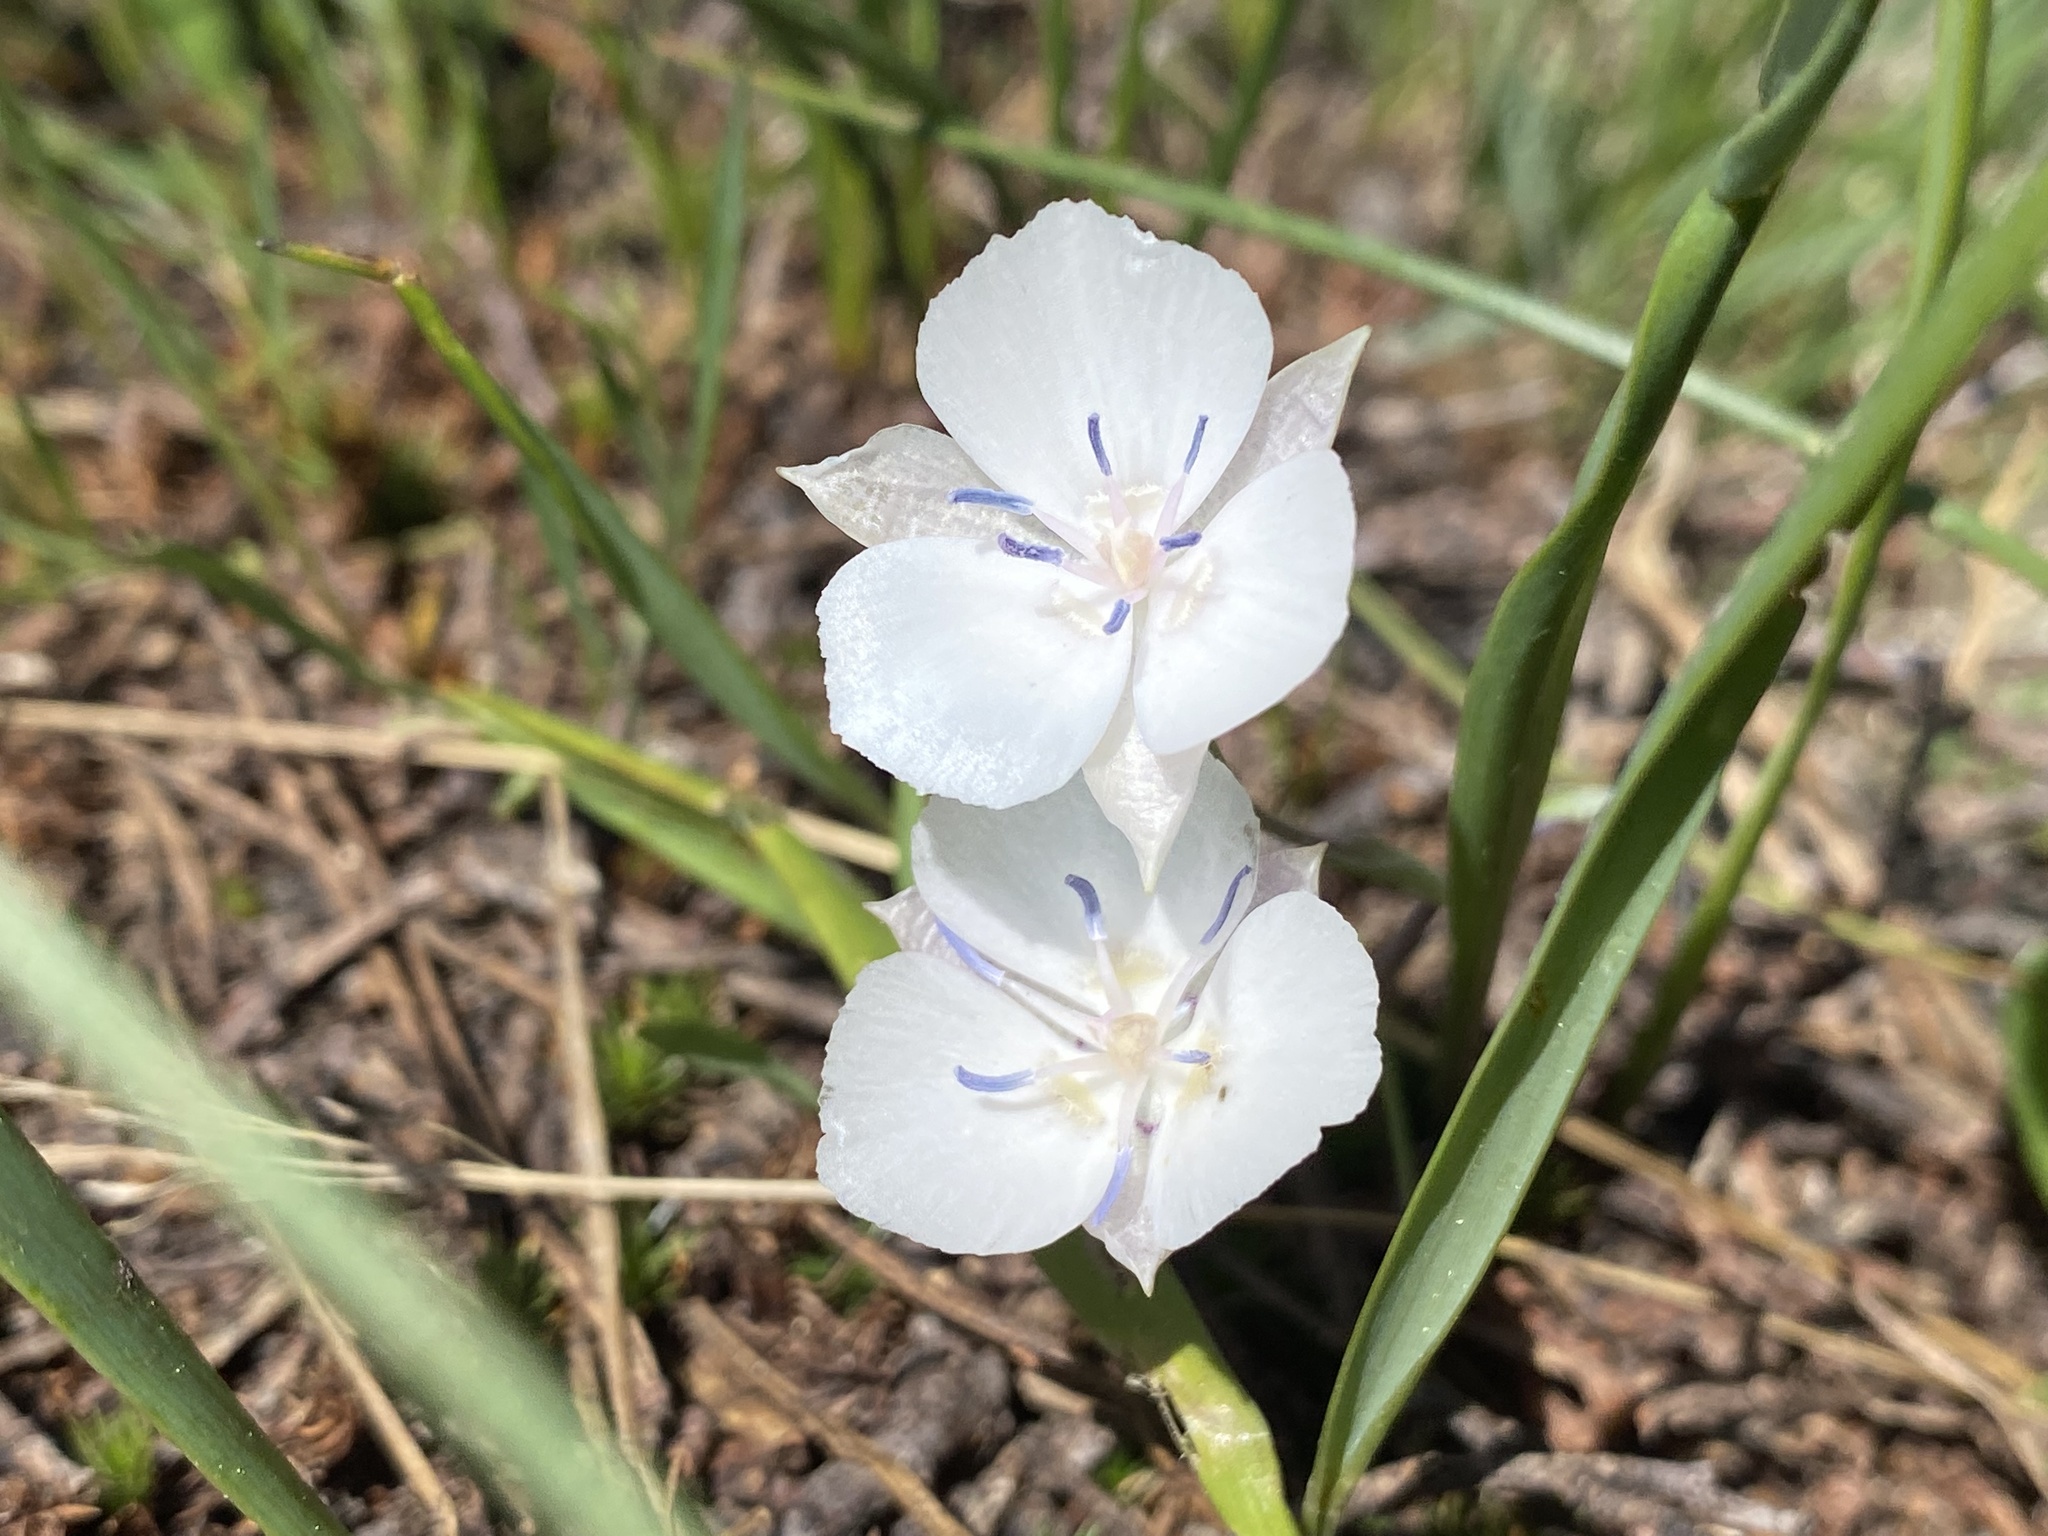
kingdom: Plantae
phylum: Tracheophyta
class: Liliopsida
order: Liliales
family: Liliaceae
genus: Calochortus
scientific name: Calochortus minimus
